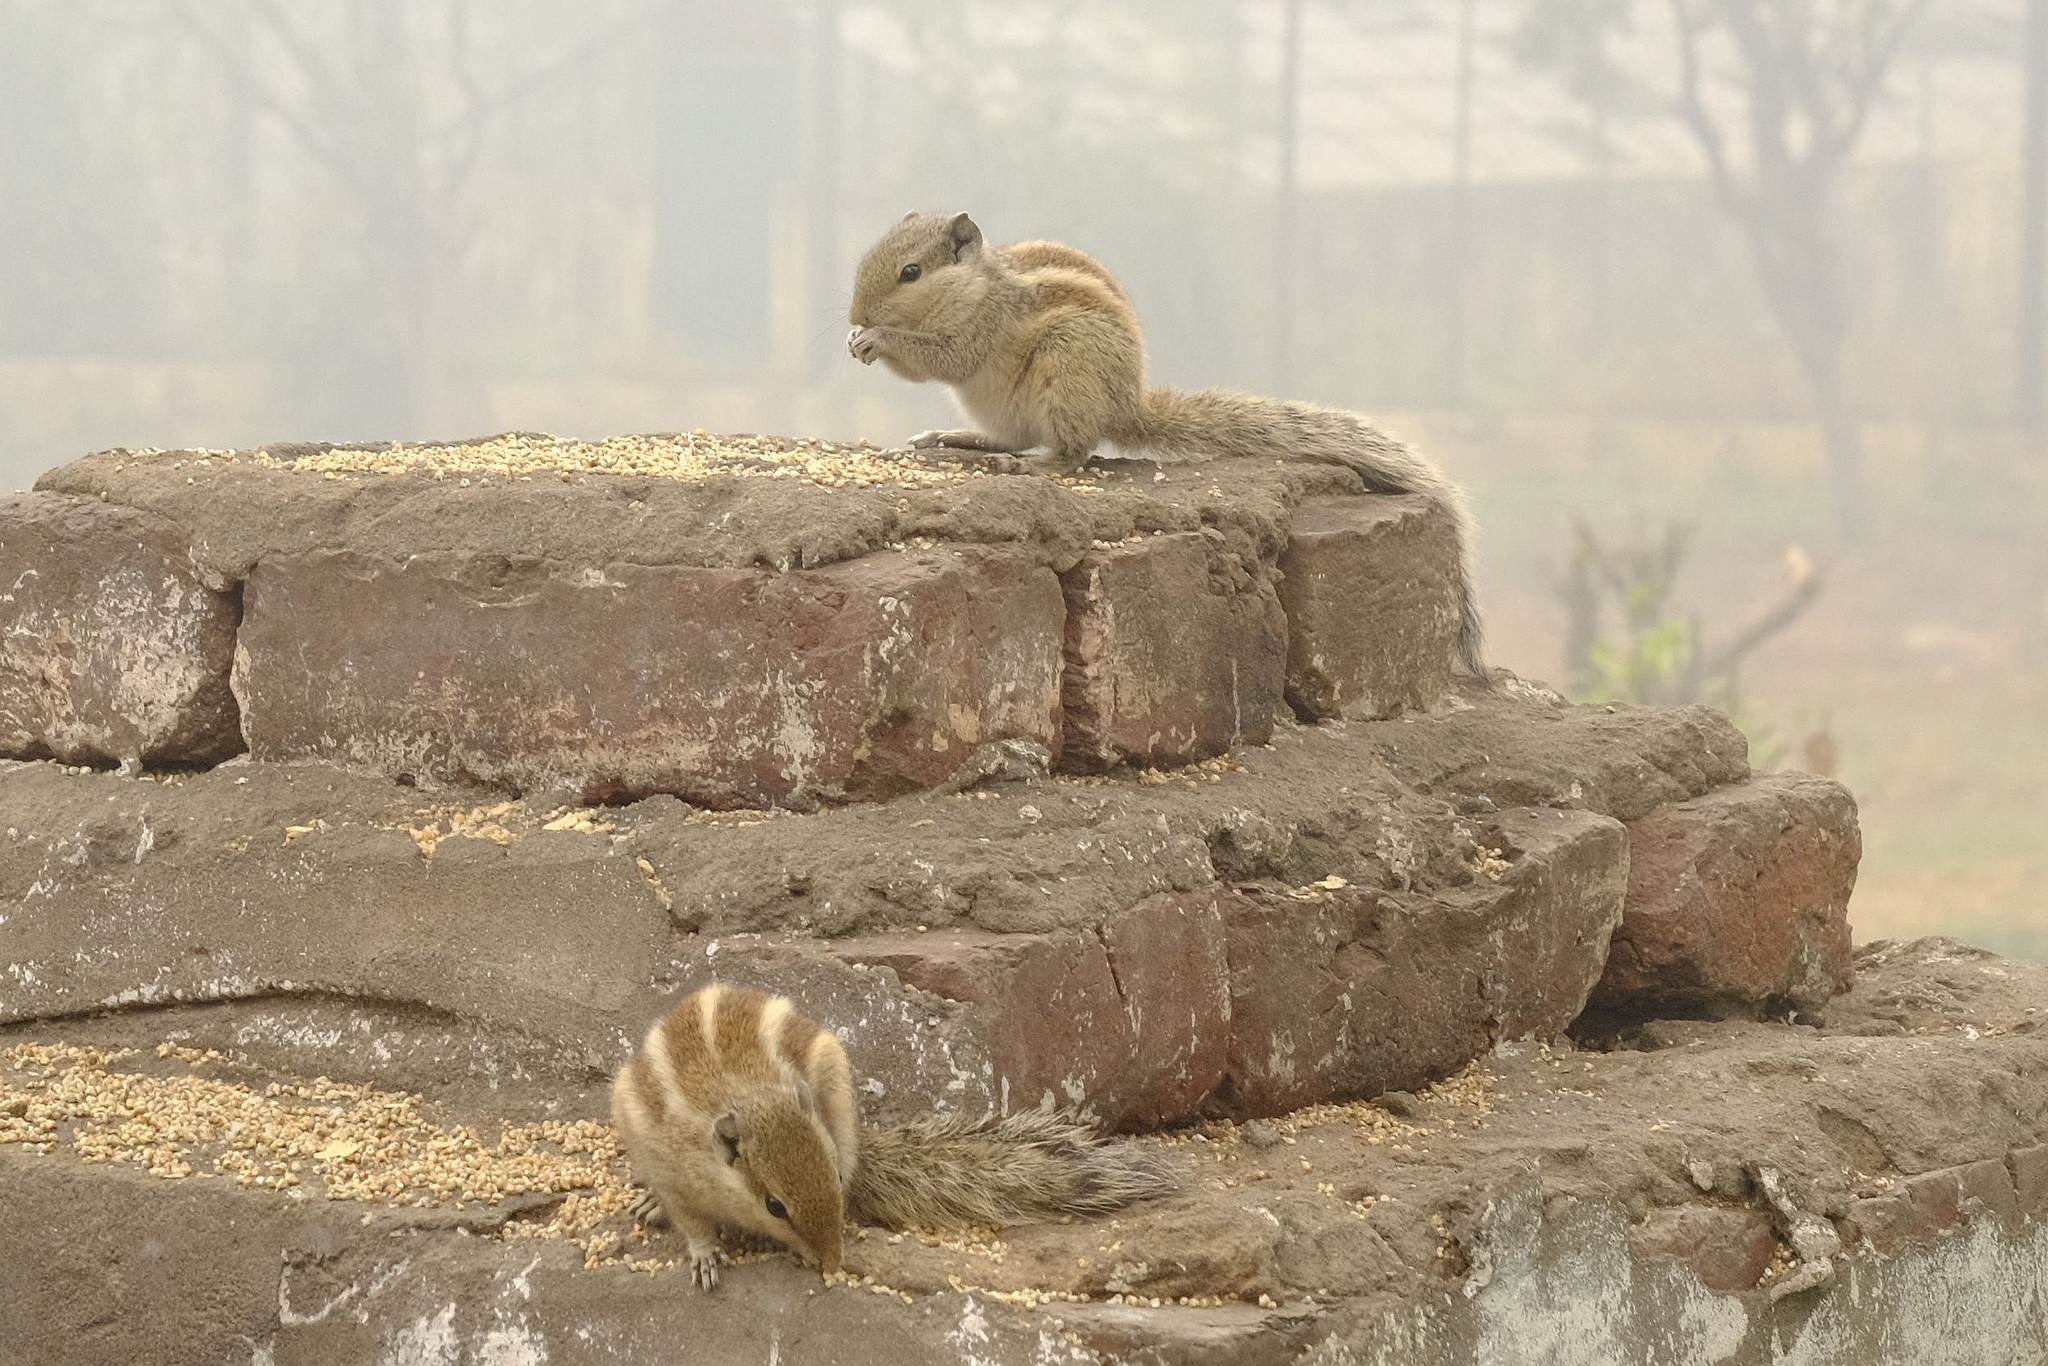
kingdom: Animalia
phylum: Chordata
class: Mammalia
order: Rodentia
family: Sciuridae
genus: Funambulus
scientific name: Funambulus pennantii
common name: Northern palm squirrel
